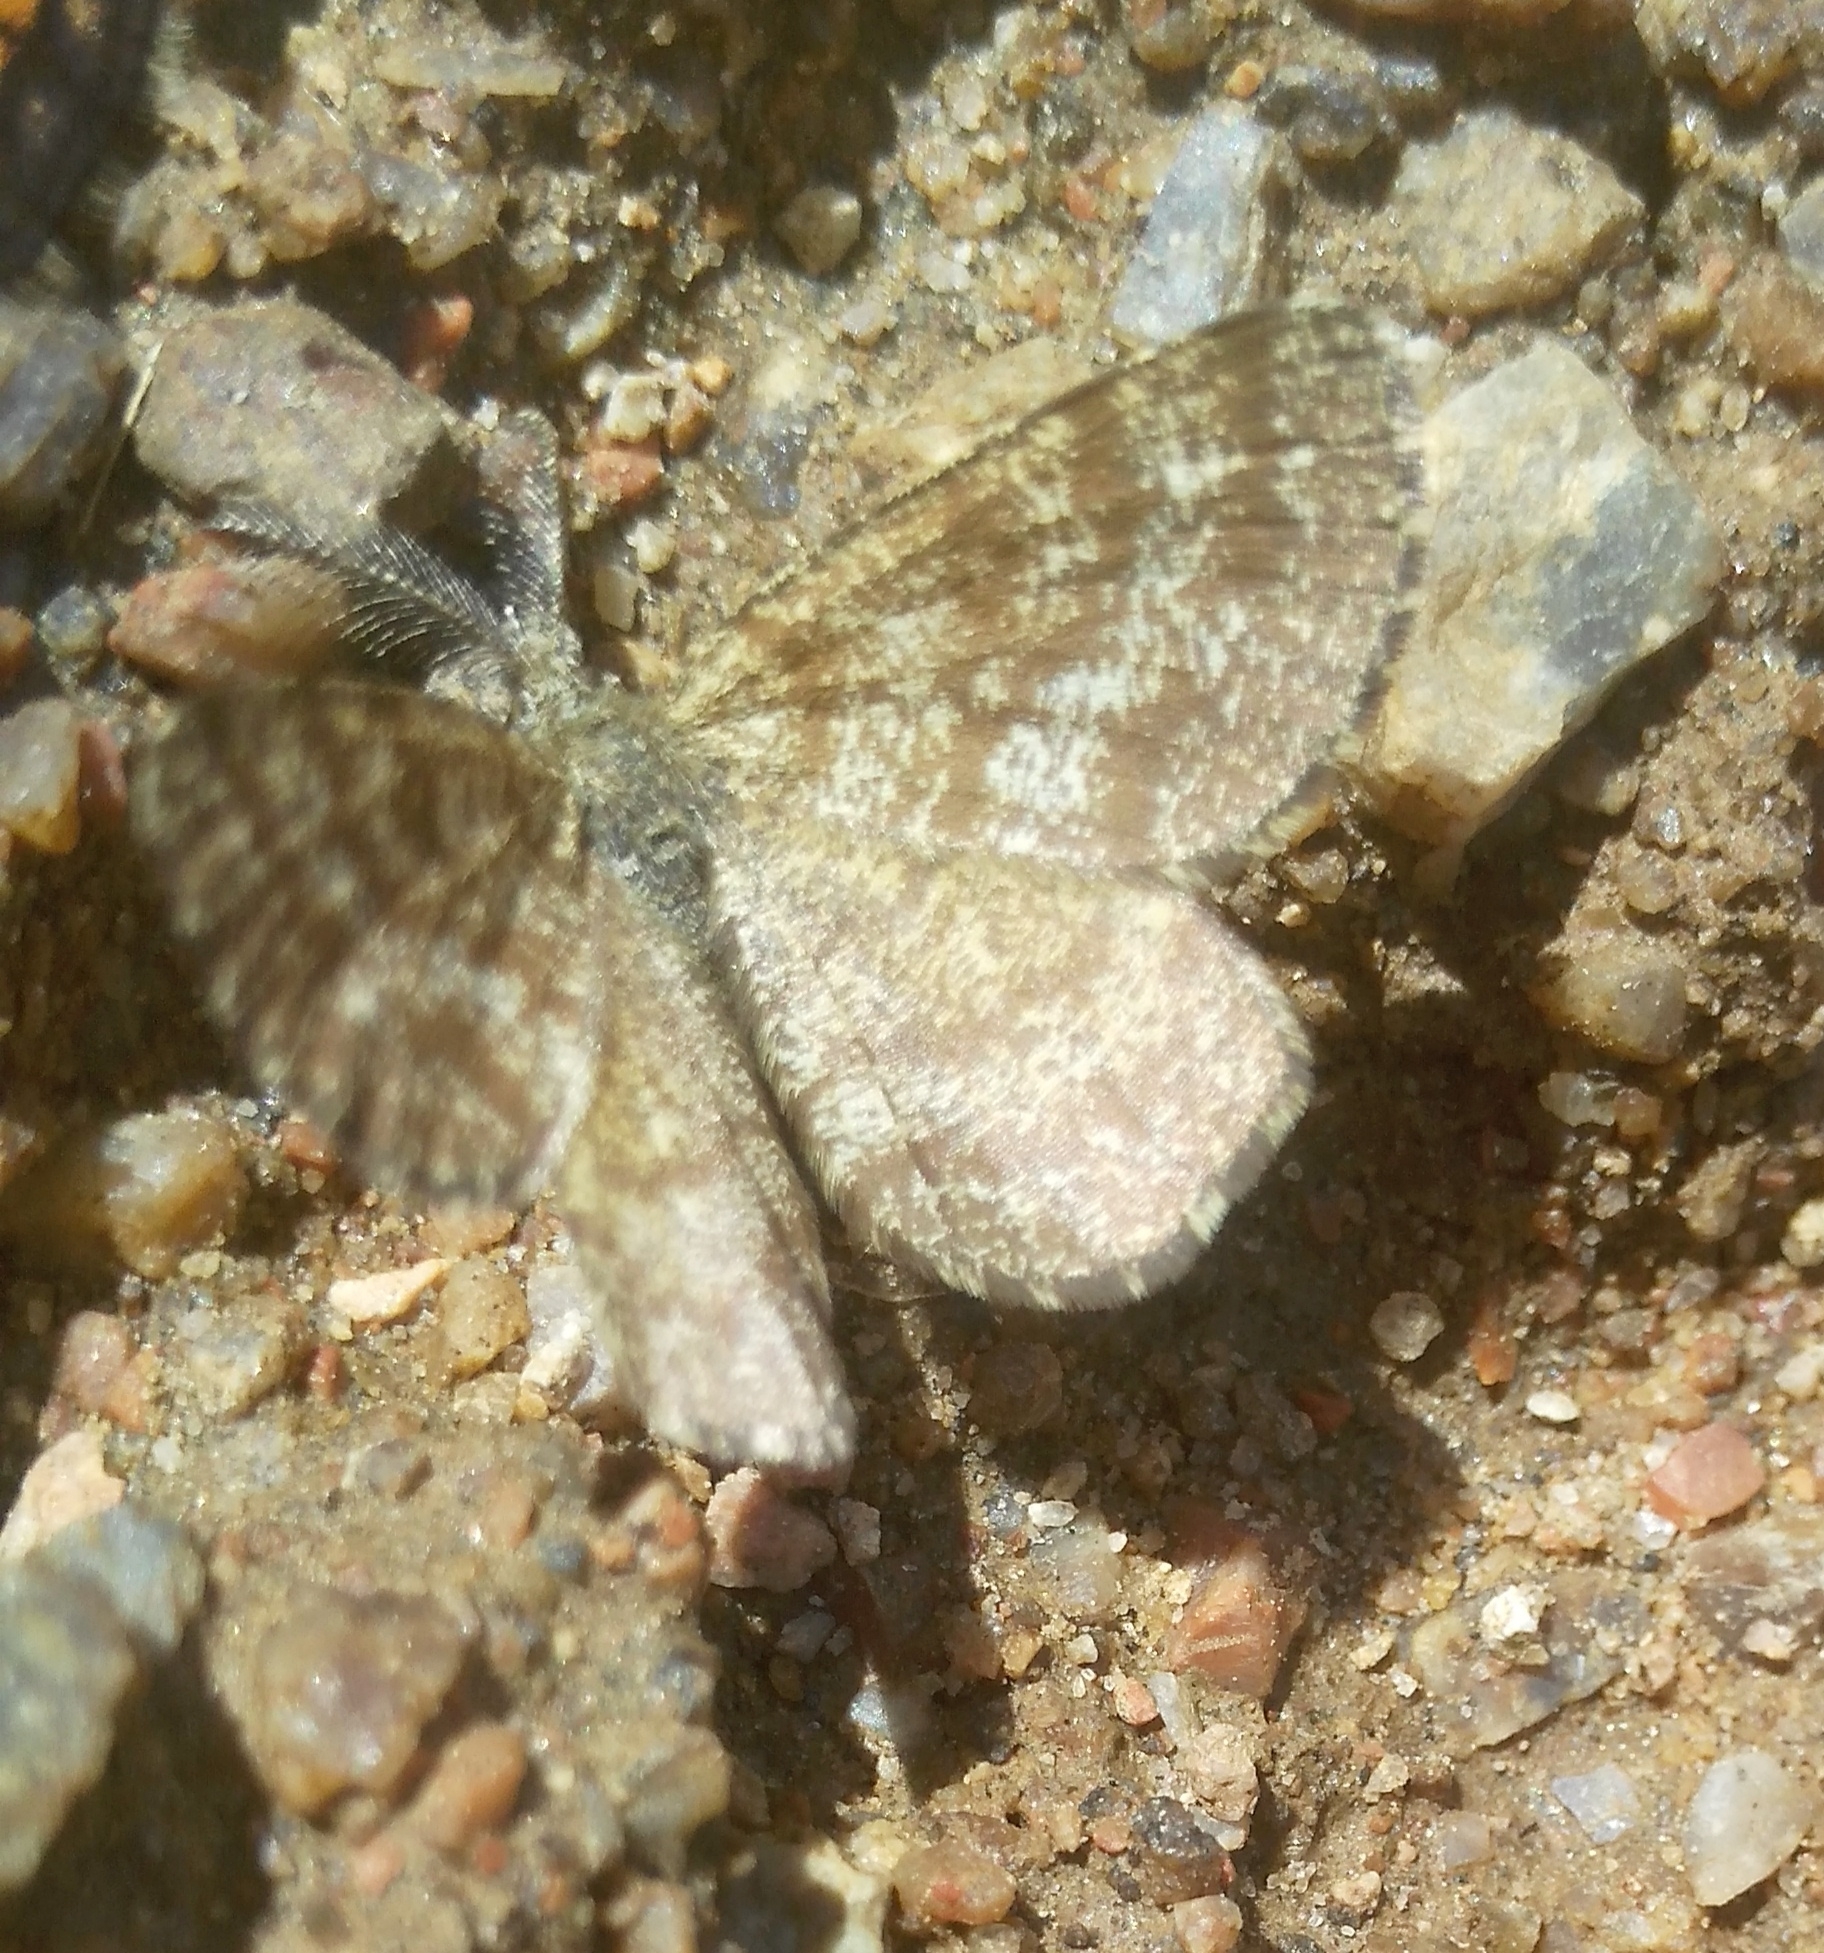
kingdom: Animalia
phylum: Arthropoda
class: Insecta
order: Lepidoptera
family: Geometridae
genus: Ematurga
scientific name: Ematurga atomaria
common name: Common heath
